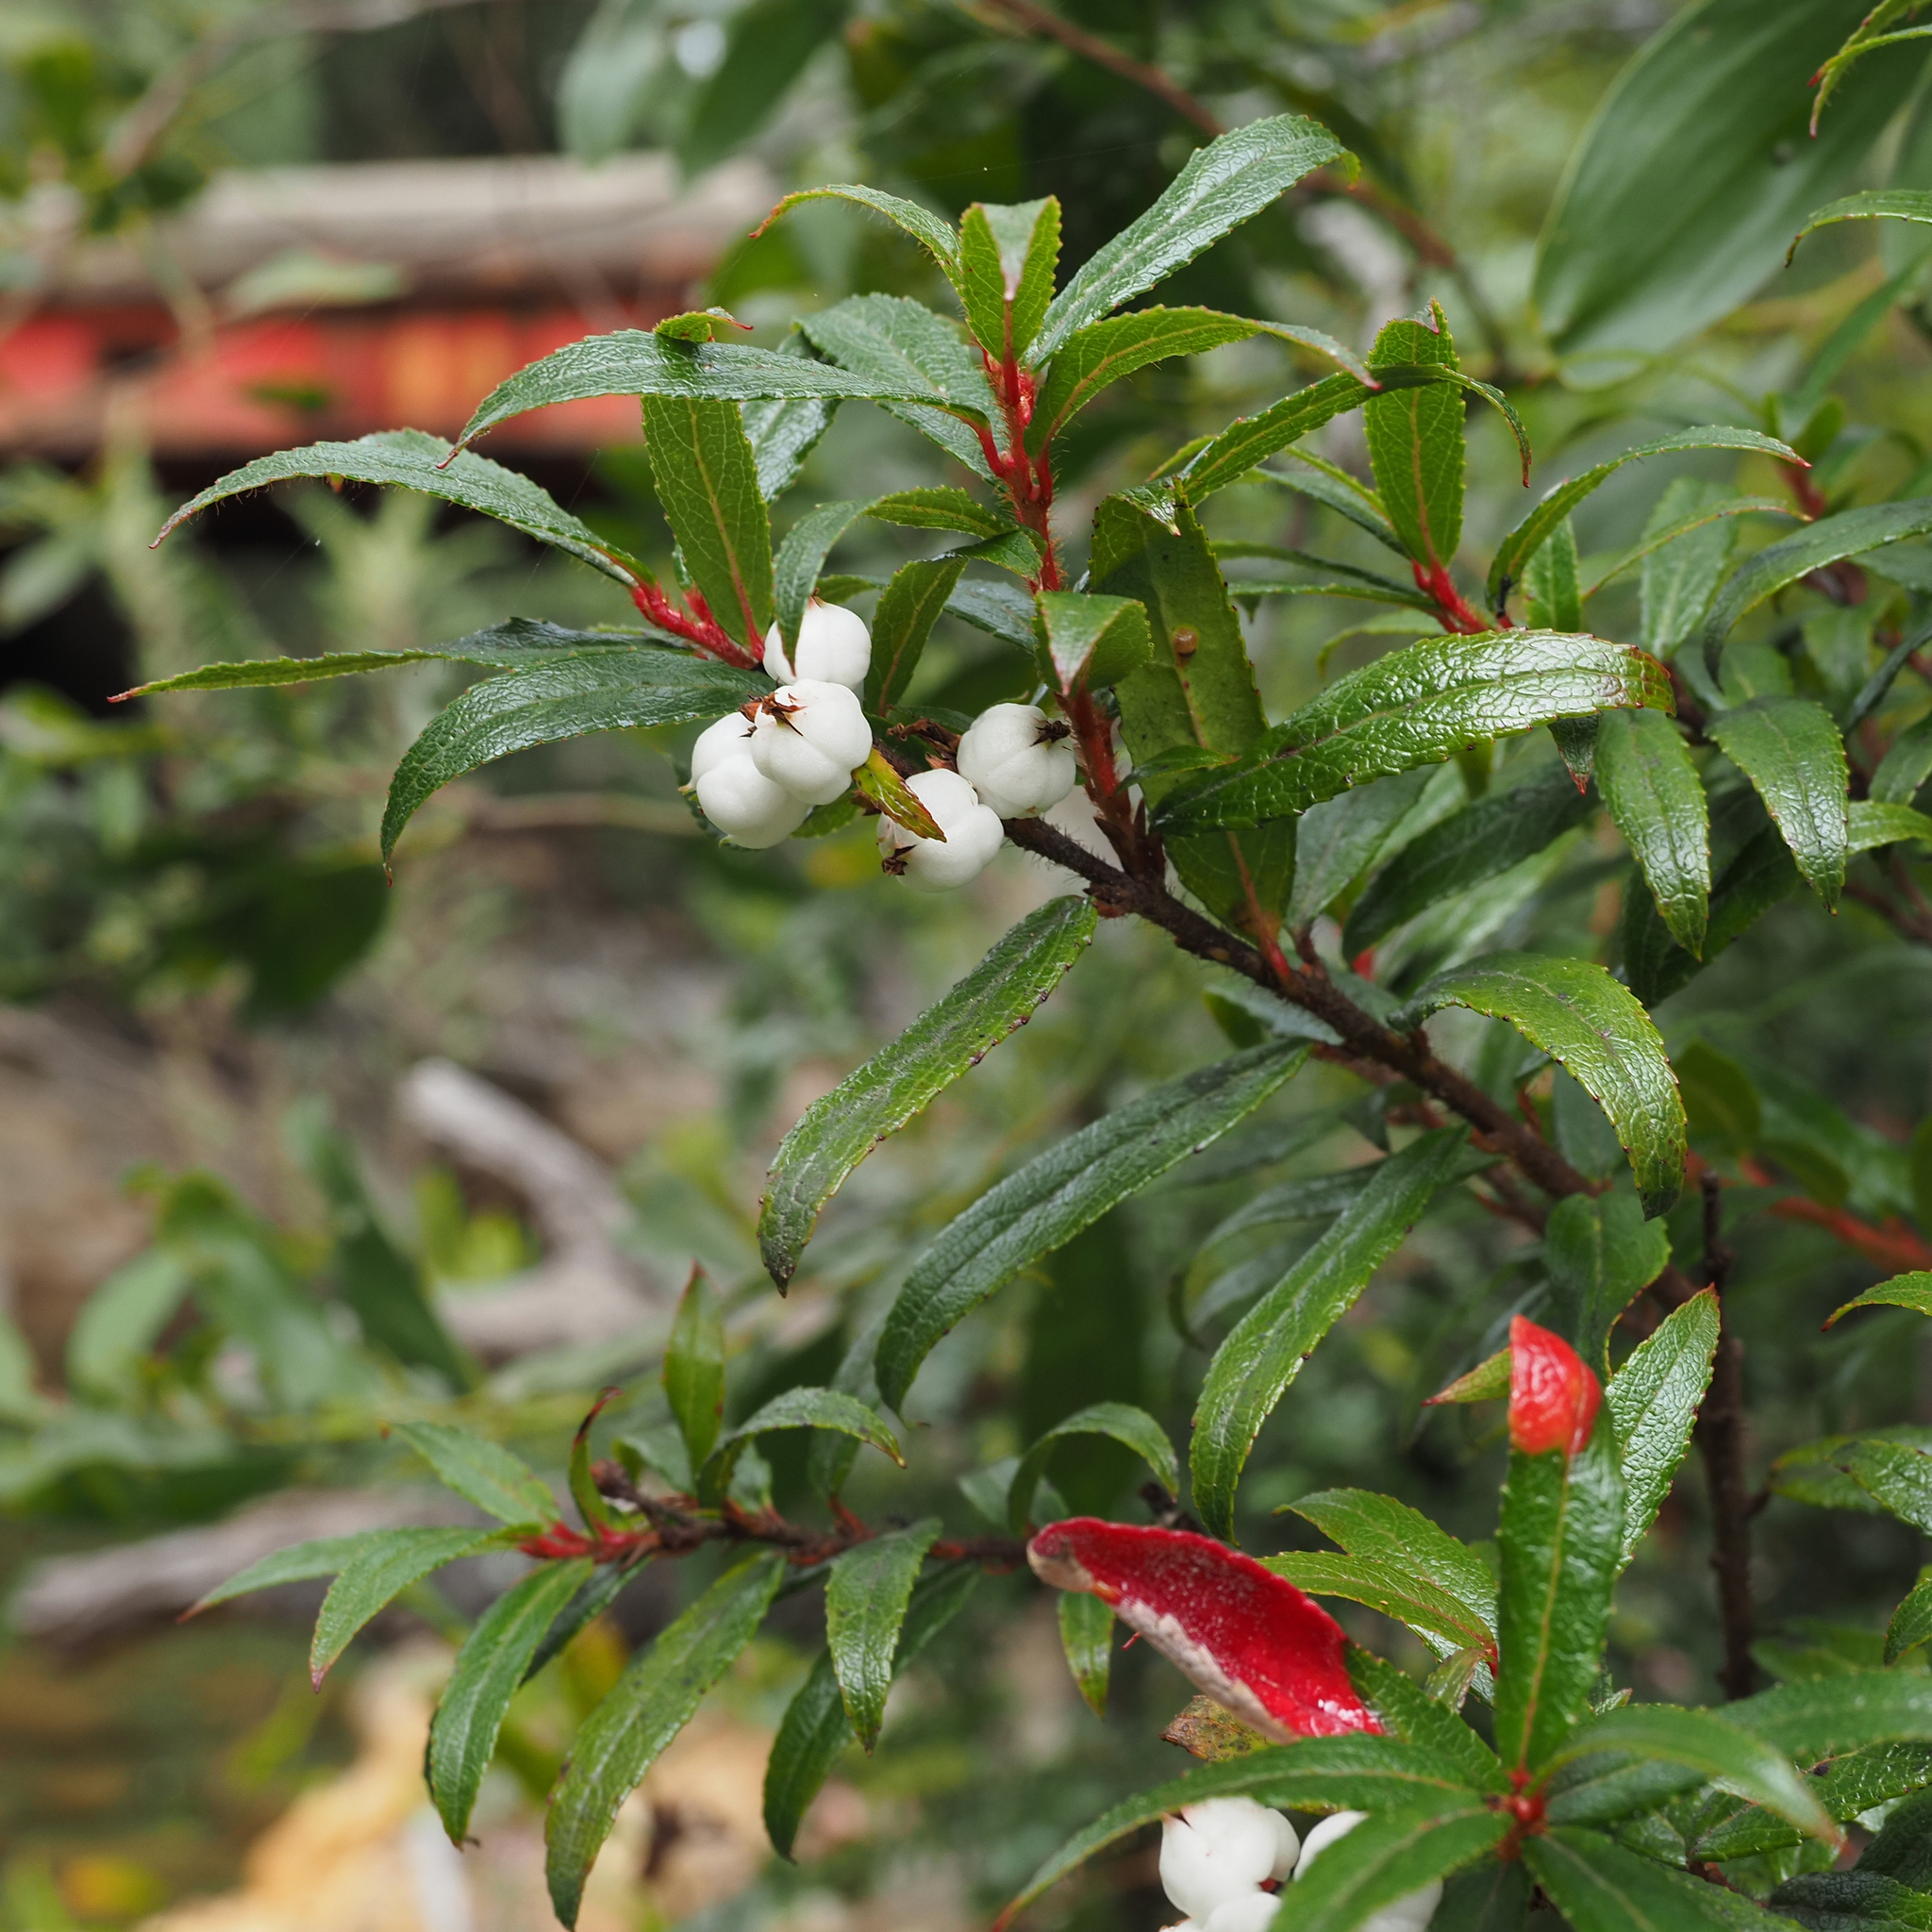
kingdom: Plantae
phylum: Tracheophyta
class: Magnoliopsida
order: Ericales
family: Ericaceae
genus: Gaultheria
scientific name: Gaultheria hispida
